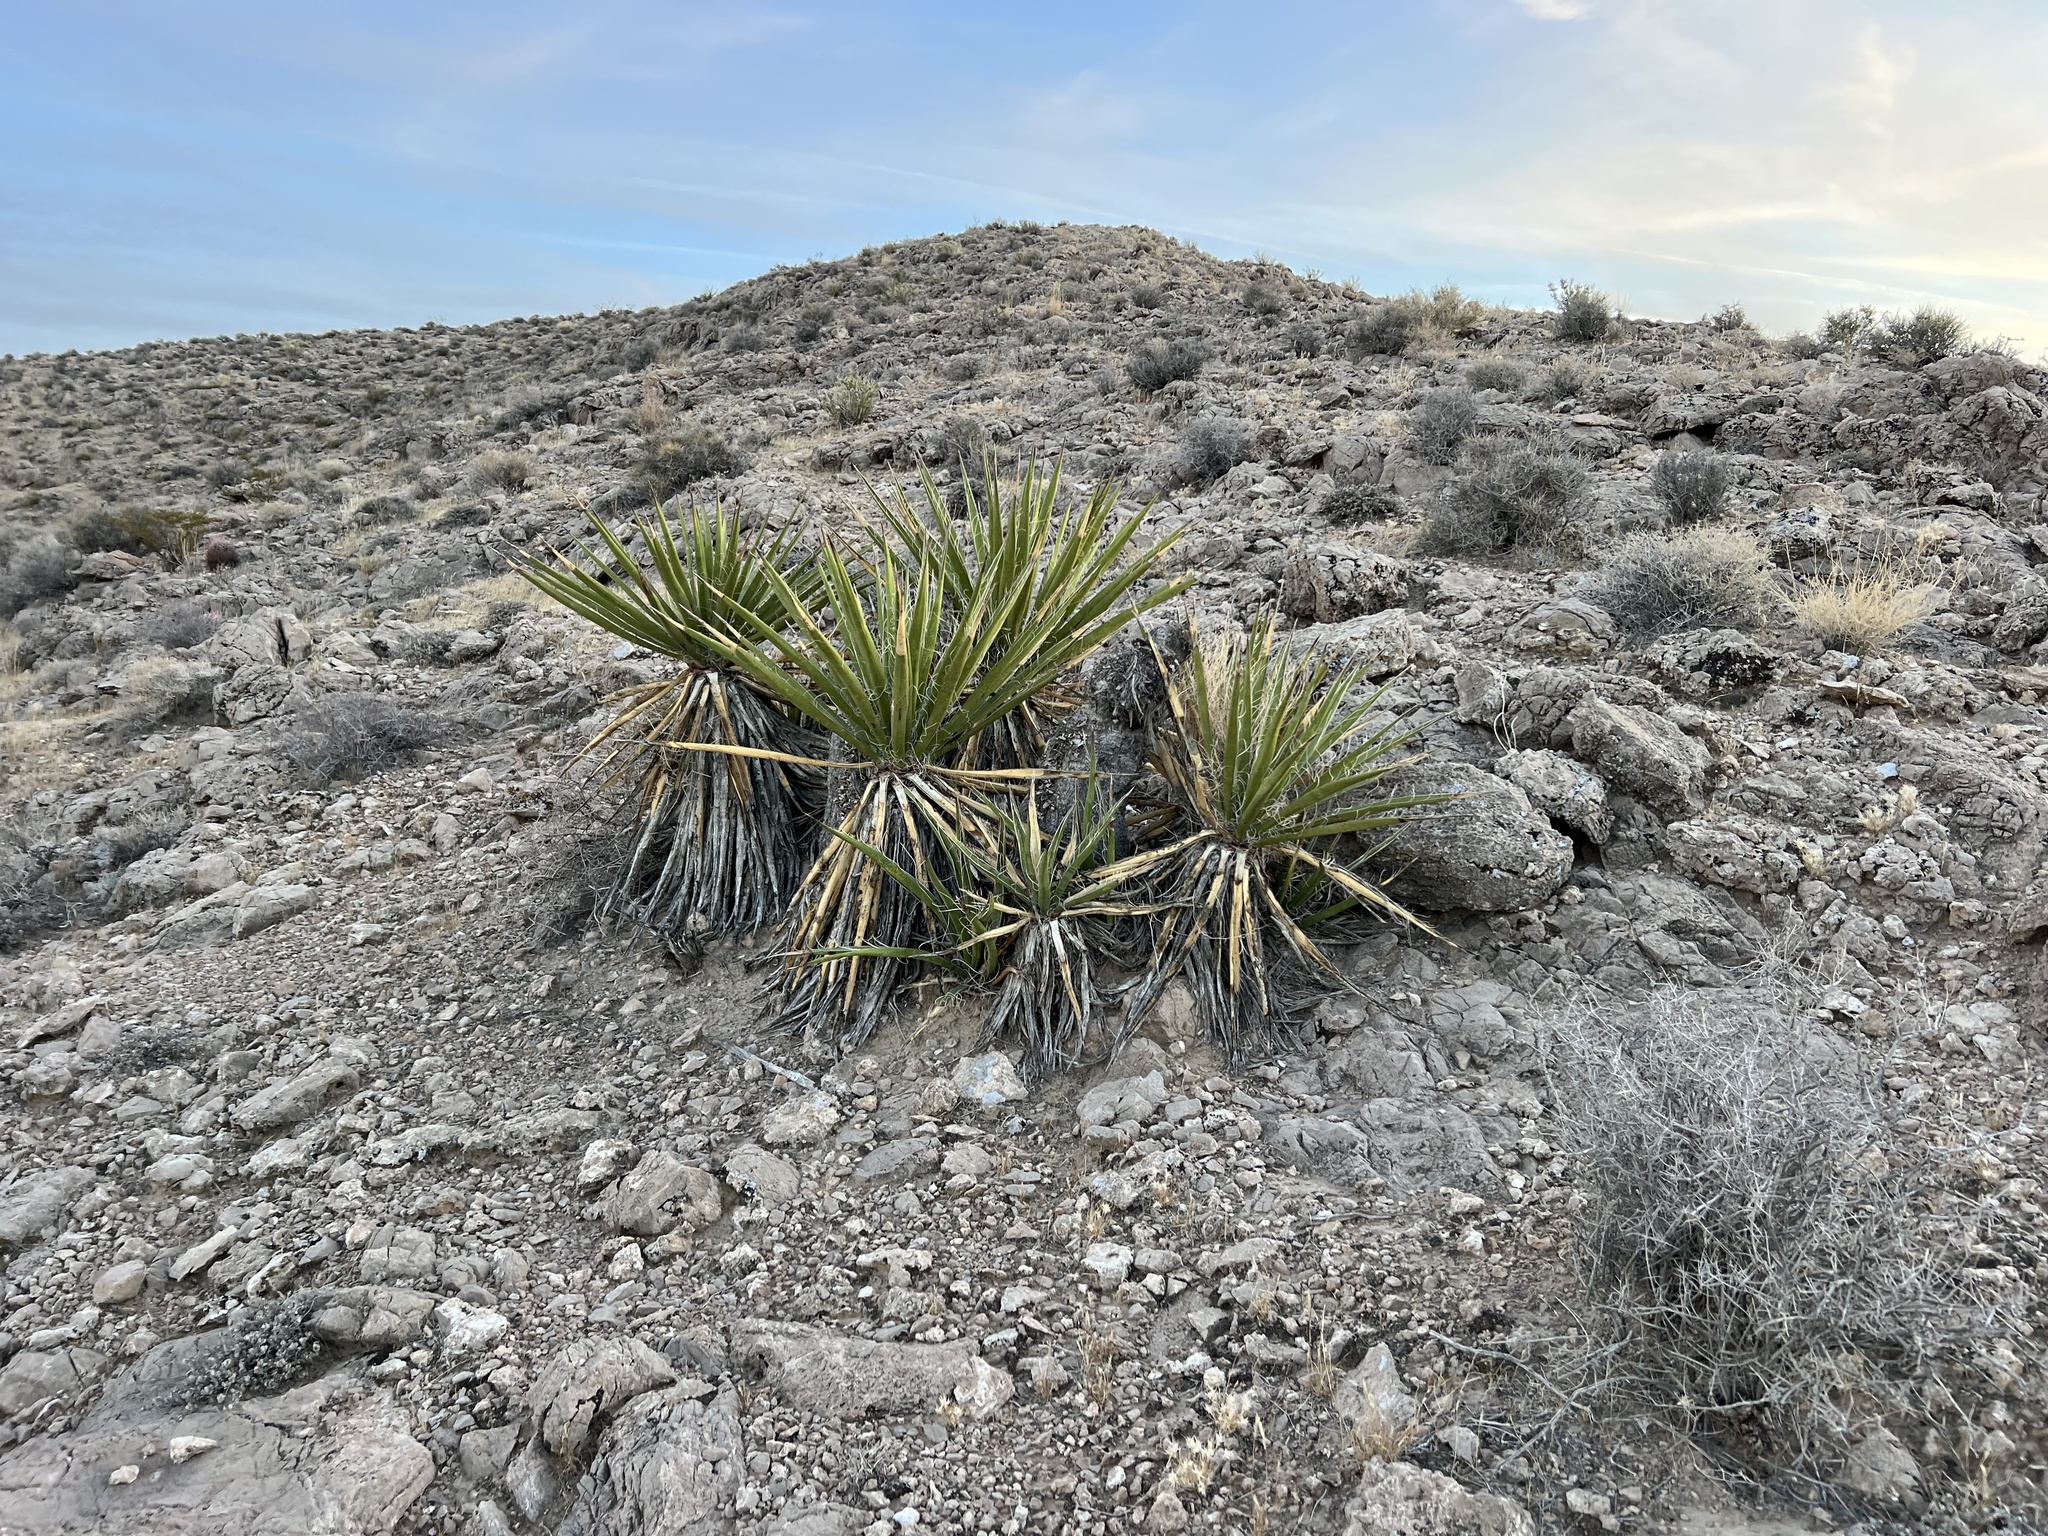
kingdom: Plantae
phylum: Tracheophyta
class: Liliopsida
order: Asparagales
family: Asparagaceae
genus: Yucca
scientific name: Yucca schidigera
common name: Mojave yucca
